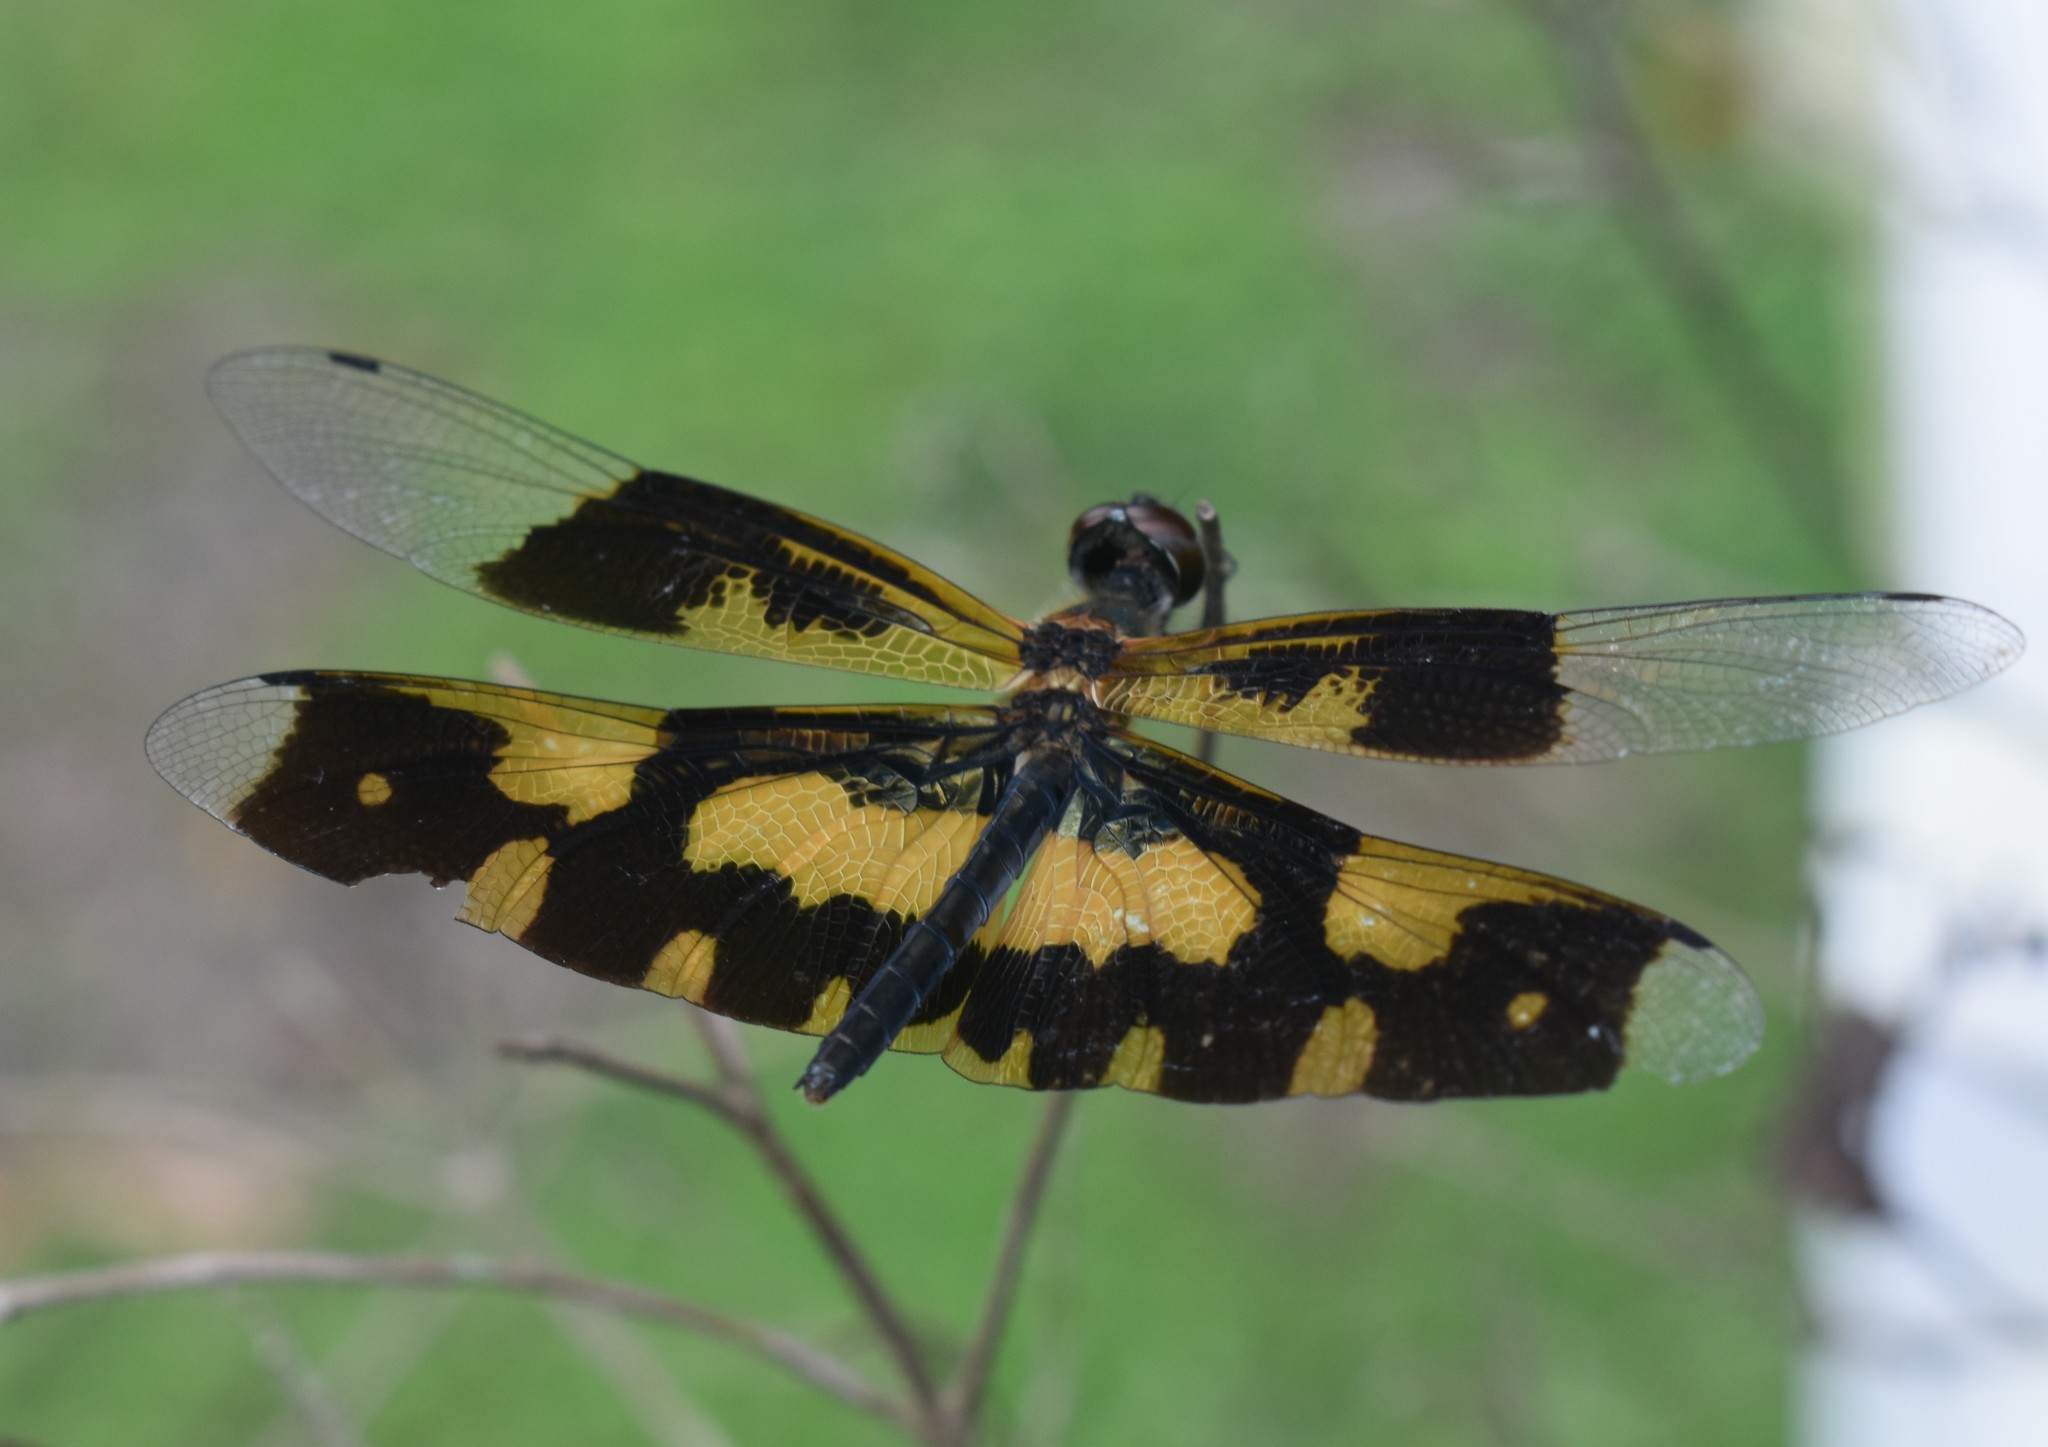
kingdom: Animalia
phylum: Arthropoda
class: Insecta
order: Odonata
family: Libellulidae
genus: Rhyothemis
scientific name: Rhyothemis variegata
